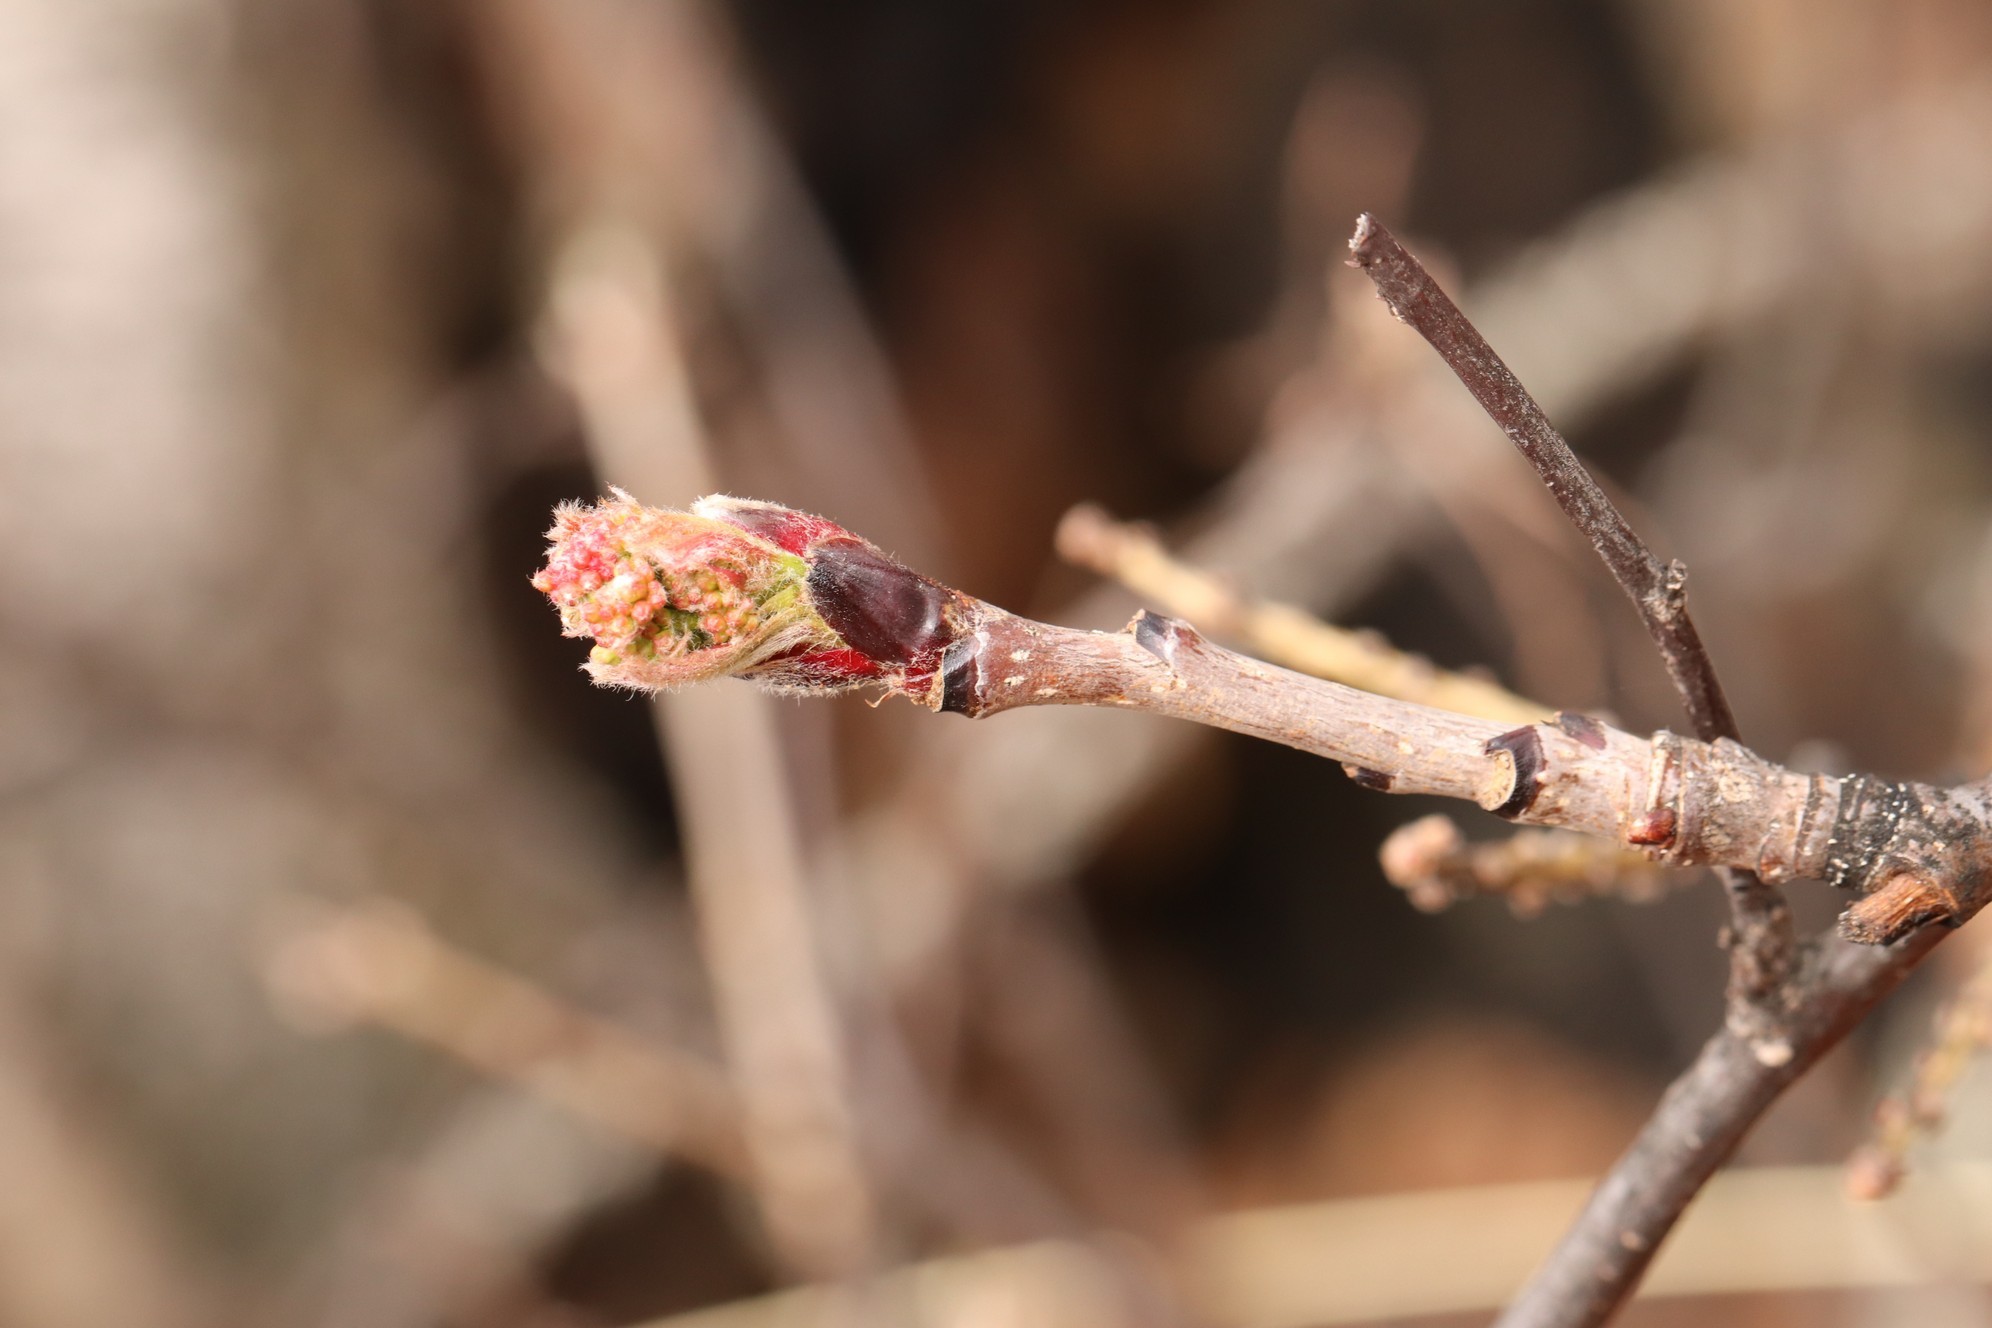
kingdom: Plantae
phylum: Tracheophyta
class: Magnoliopsida
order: Rosales
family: Rosaceae
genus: Sorbus
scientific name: Sorbus aucuparia
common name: Rowan
